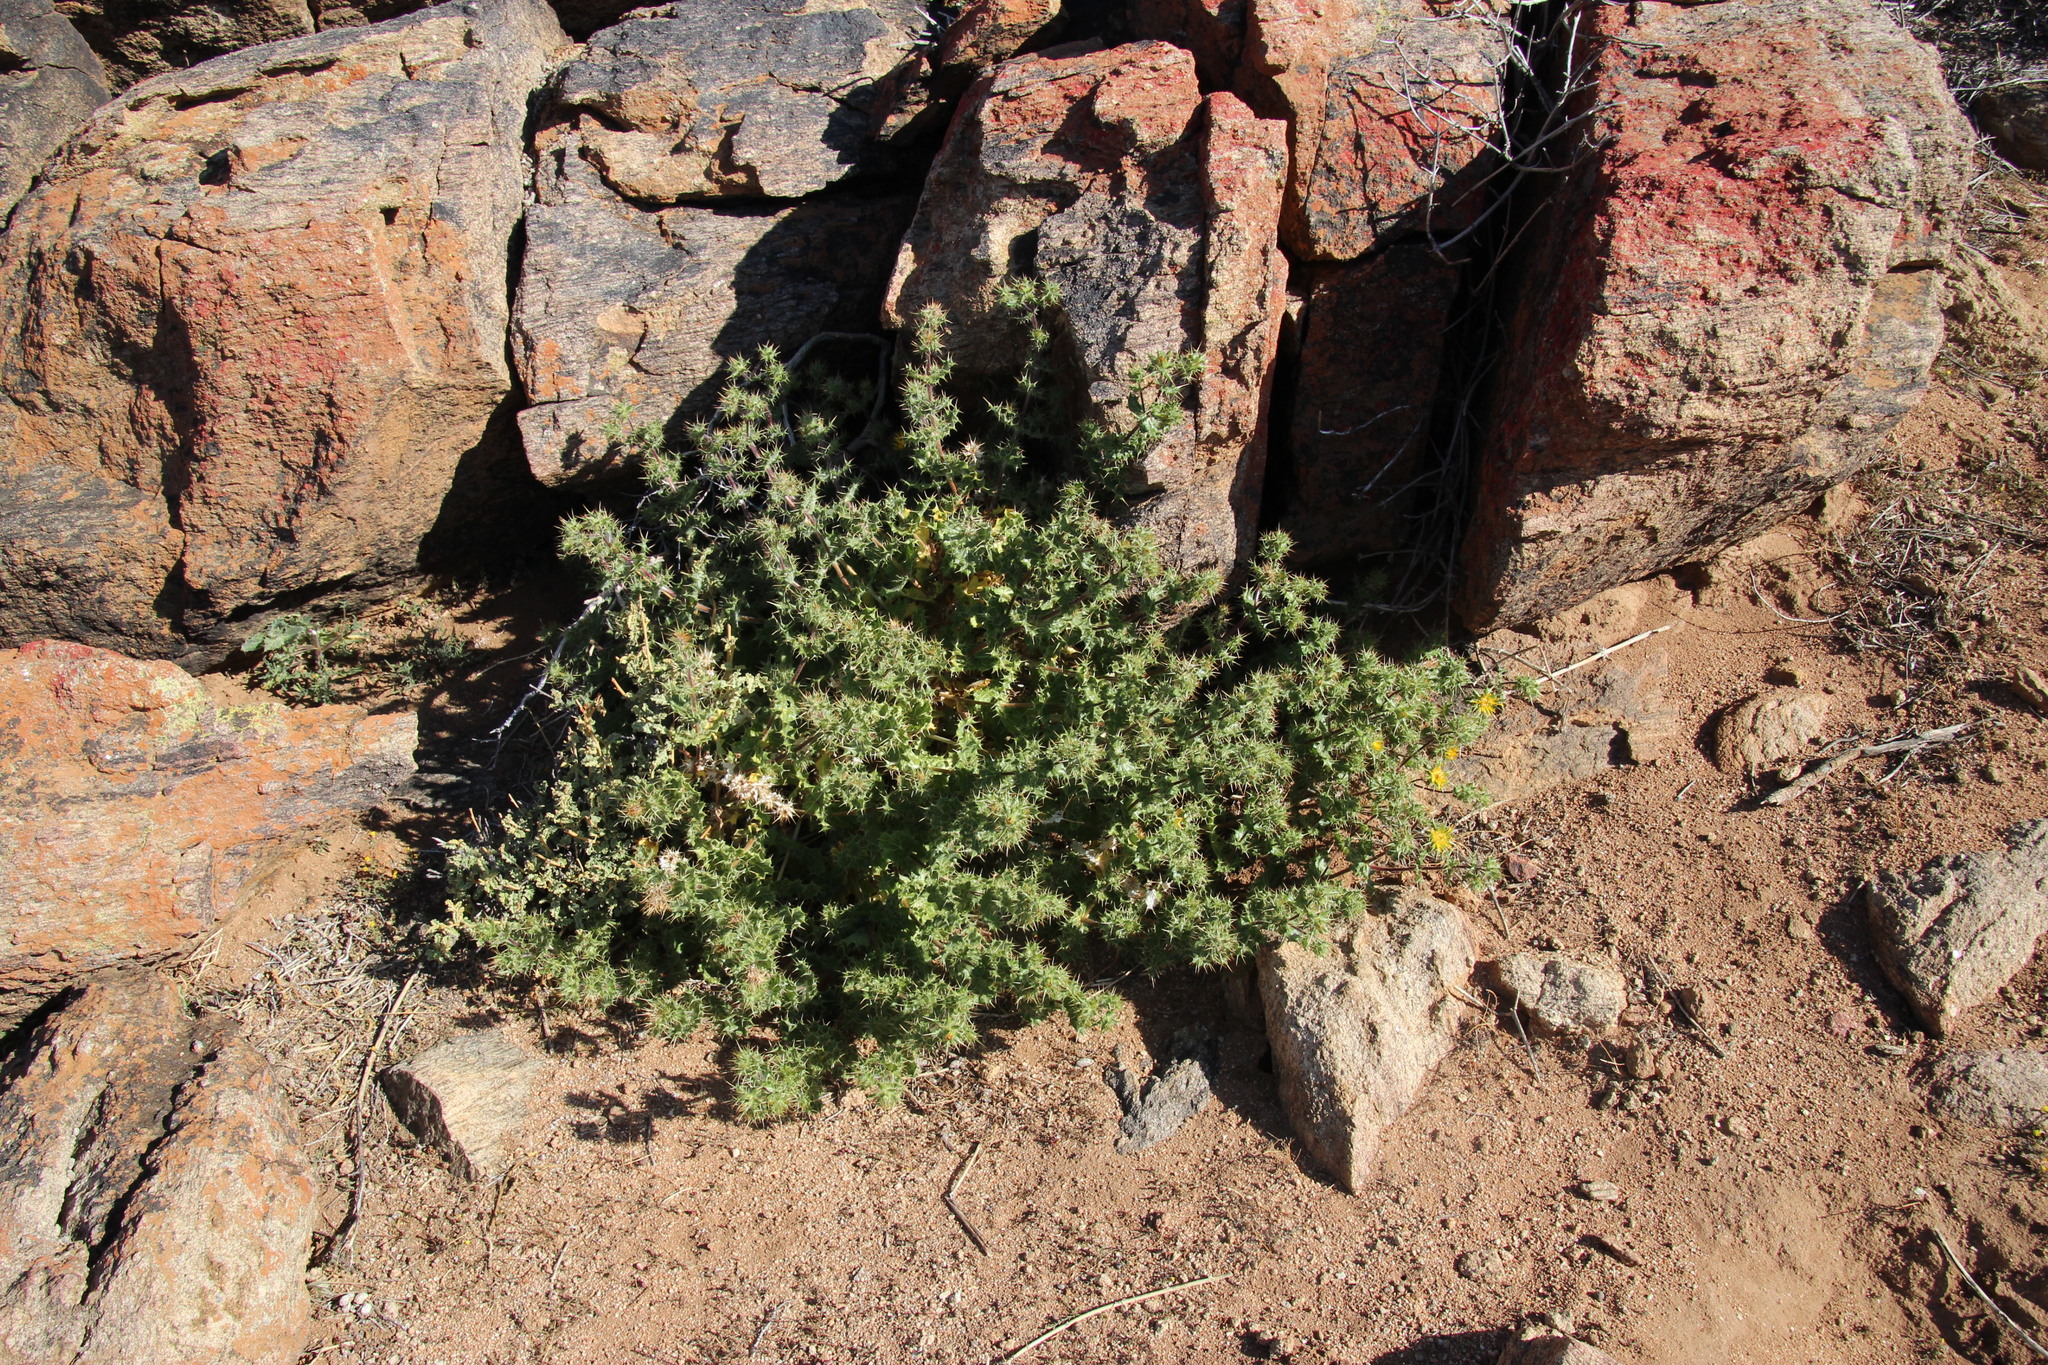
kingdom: Plantae
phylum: Tracheophyta
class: Magnoliopsida
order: Asterales
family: Asteraceae
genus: Berkheya
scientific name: Berkheya spinosissima
